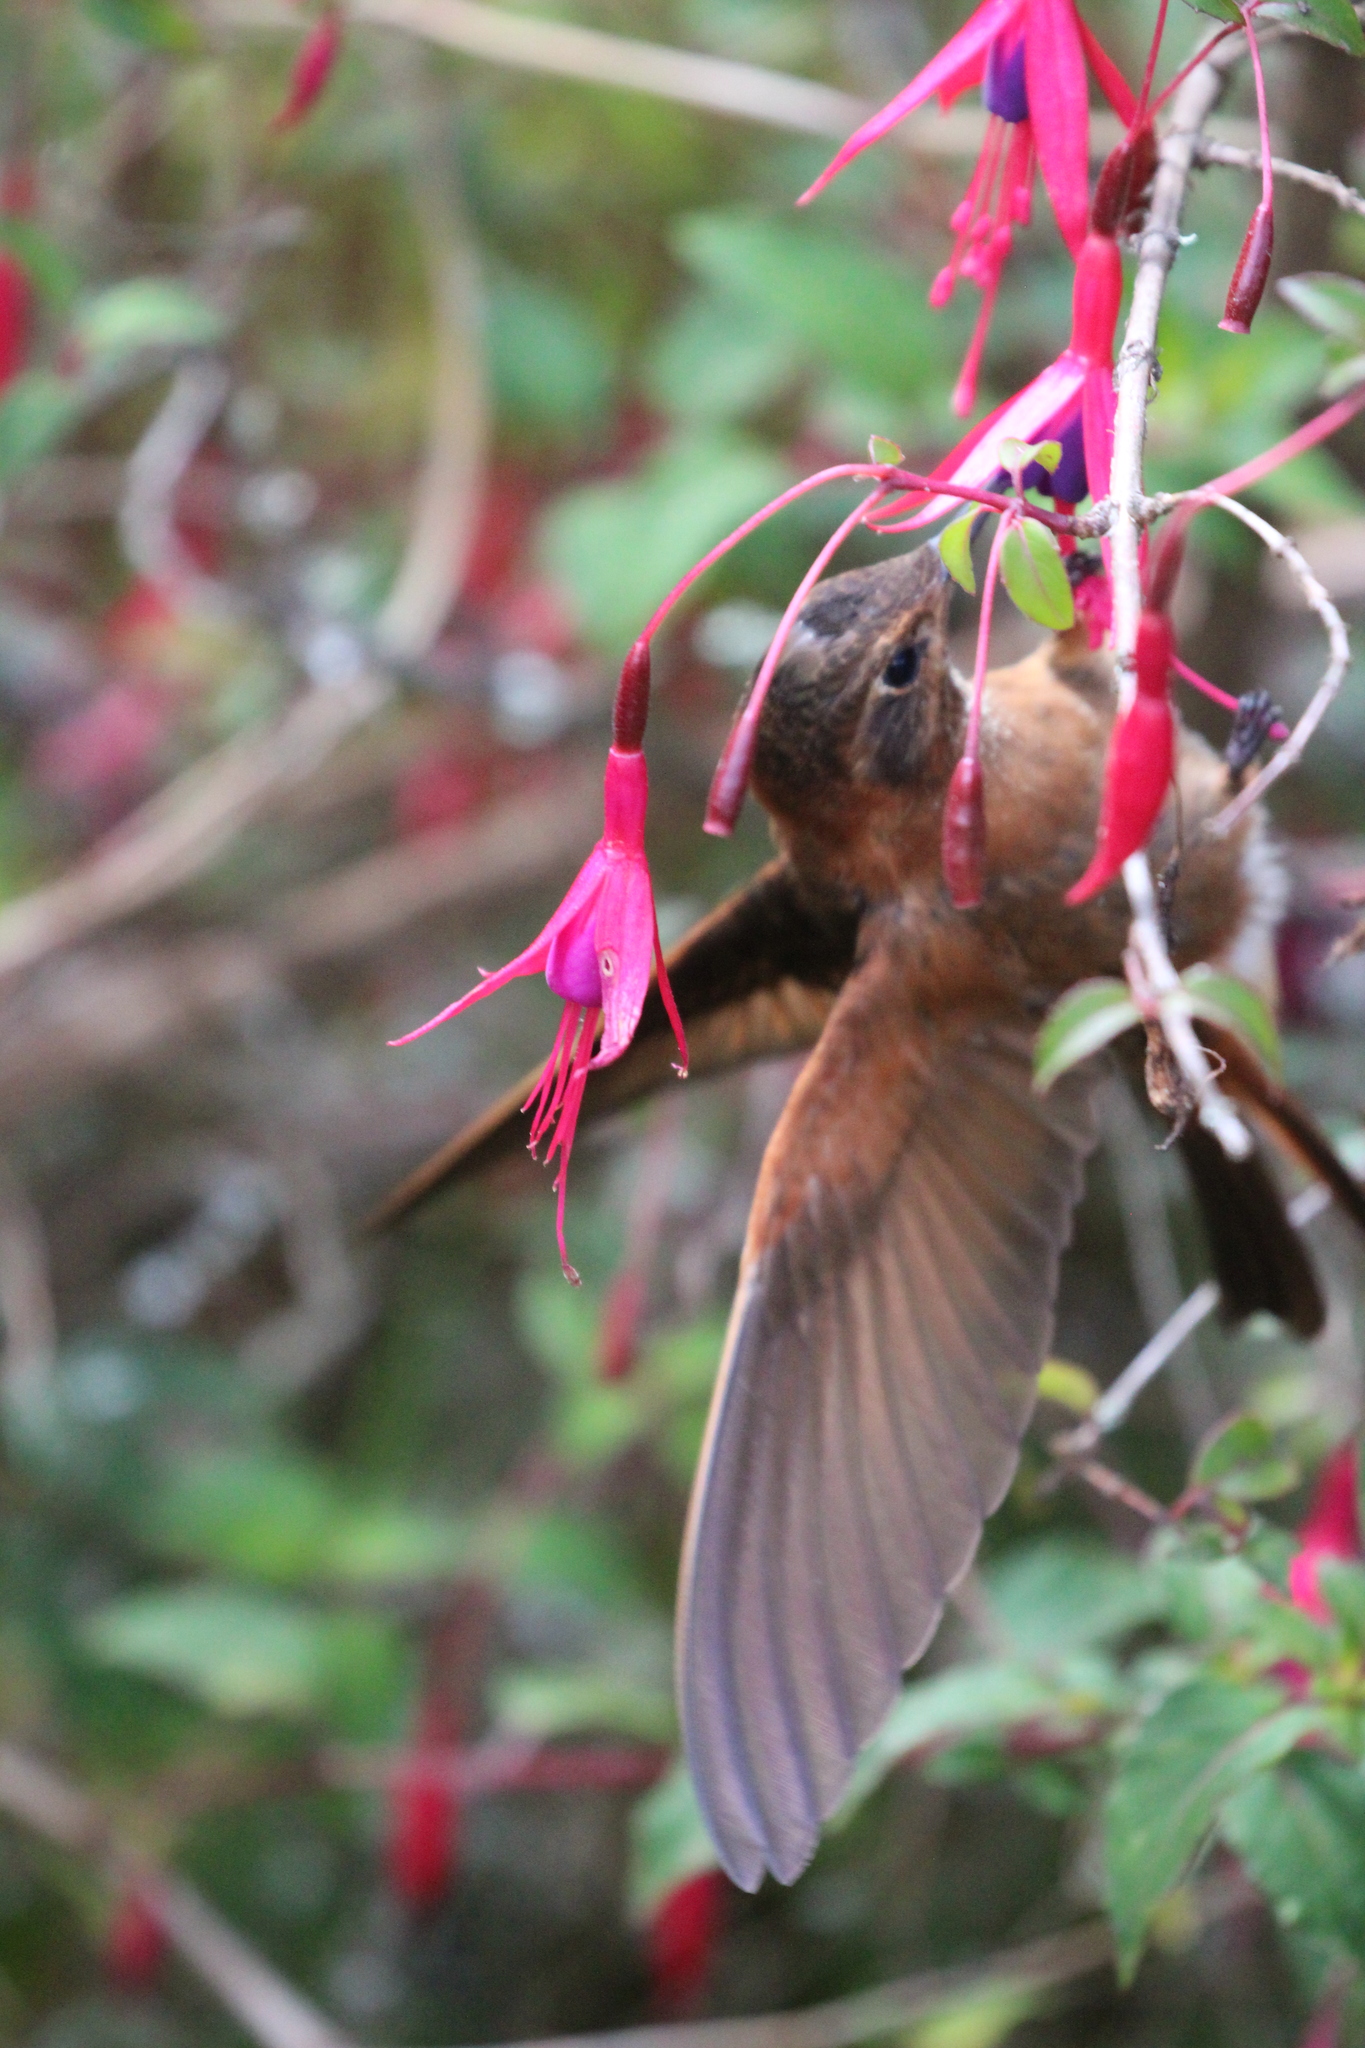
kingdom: Animalia
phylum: Chordata
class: Aves
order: Apodiformes
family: Trochilidae
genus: Aglaeactis
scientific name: Aglaeactis cupripennis
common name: Shining sunbeam
